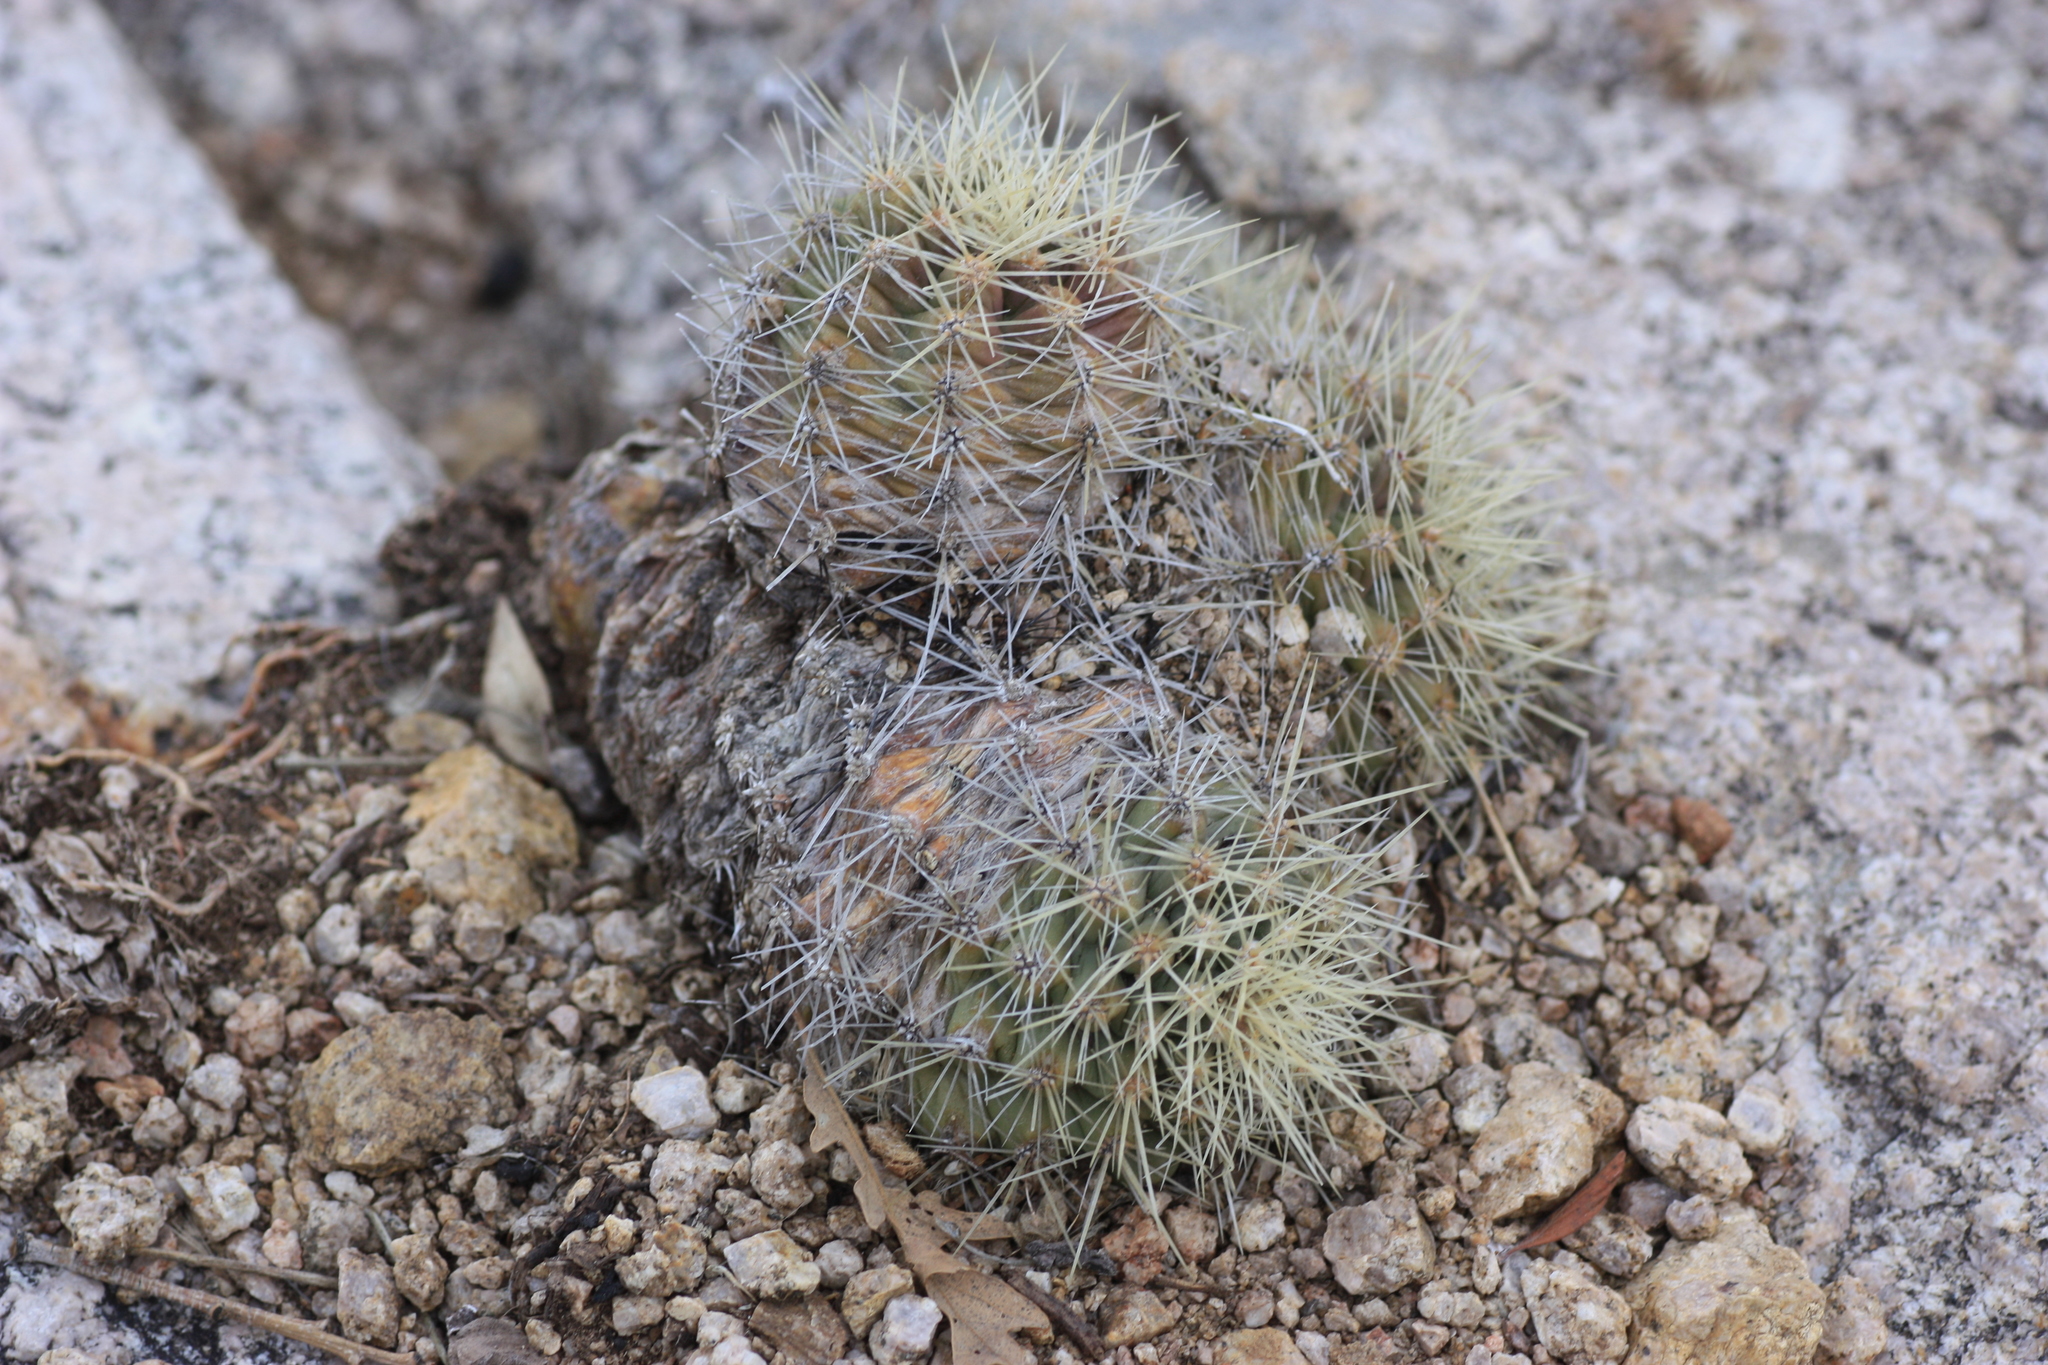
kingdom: Plantae
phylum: Tracheophyta
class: Magnoliopsida
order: Caryophyllales
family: Cactaceae
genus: Echinocereus
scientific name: Echinocereus coccineus
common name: Scarlet hedgehog cactus
